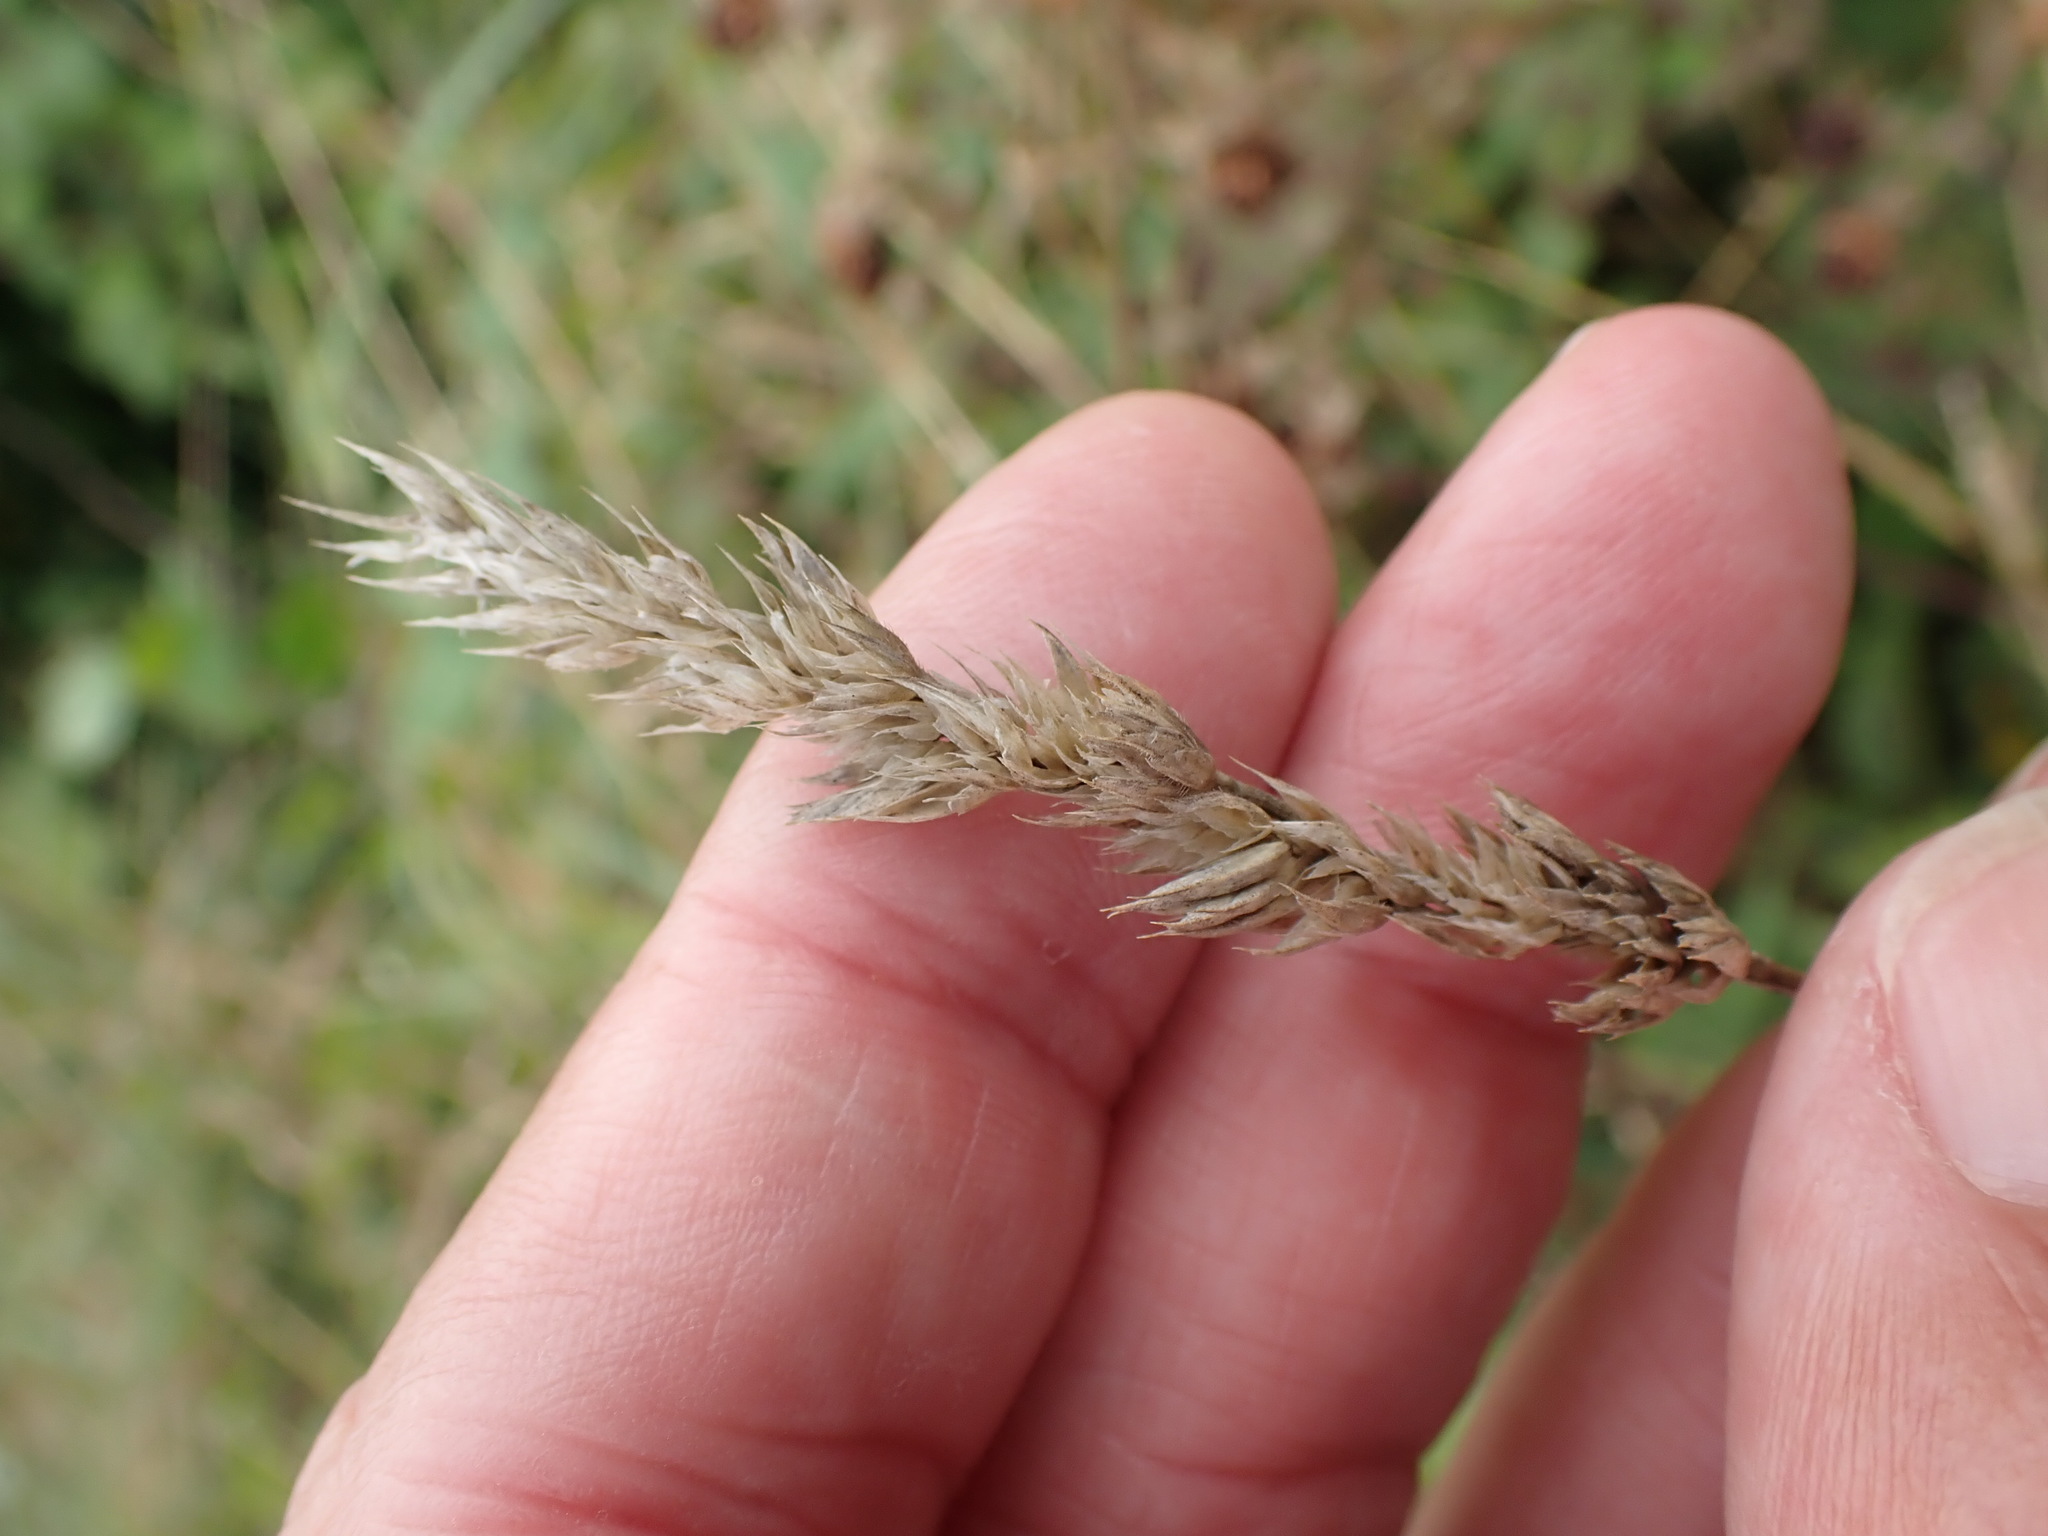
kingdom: Plantae
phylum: Tracheophyta
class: Liliopsida
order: Poales
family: Poaceae
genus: Dactylis
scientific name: Dactylis glomerata
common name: Orchardgrass
